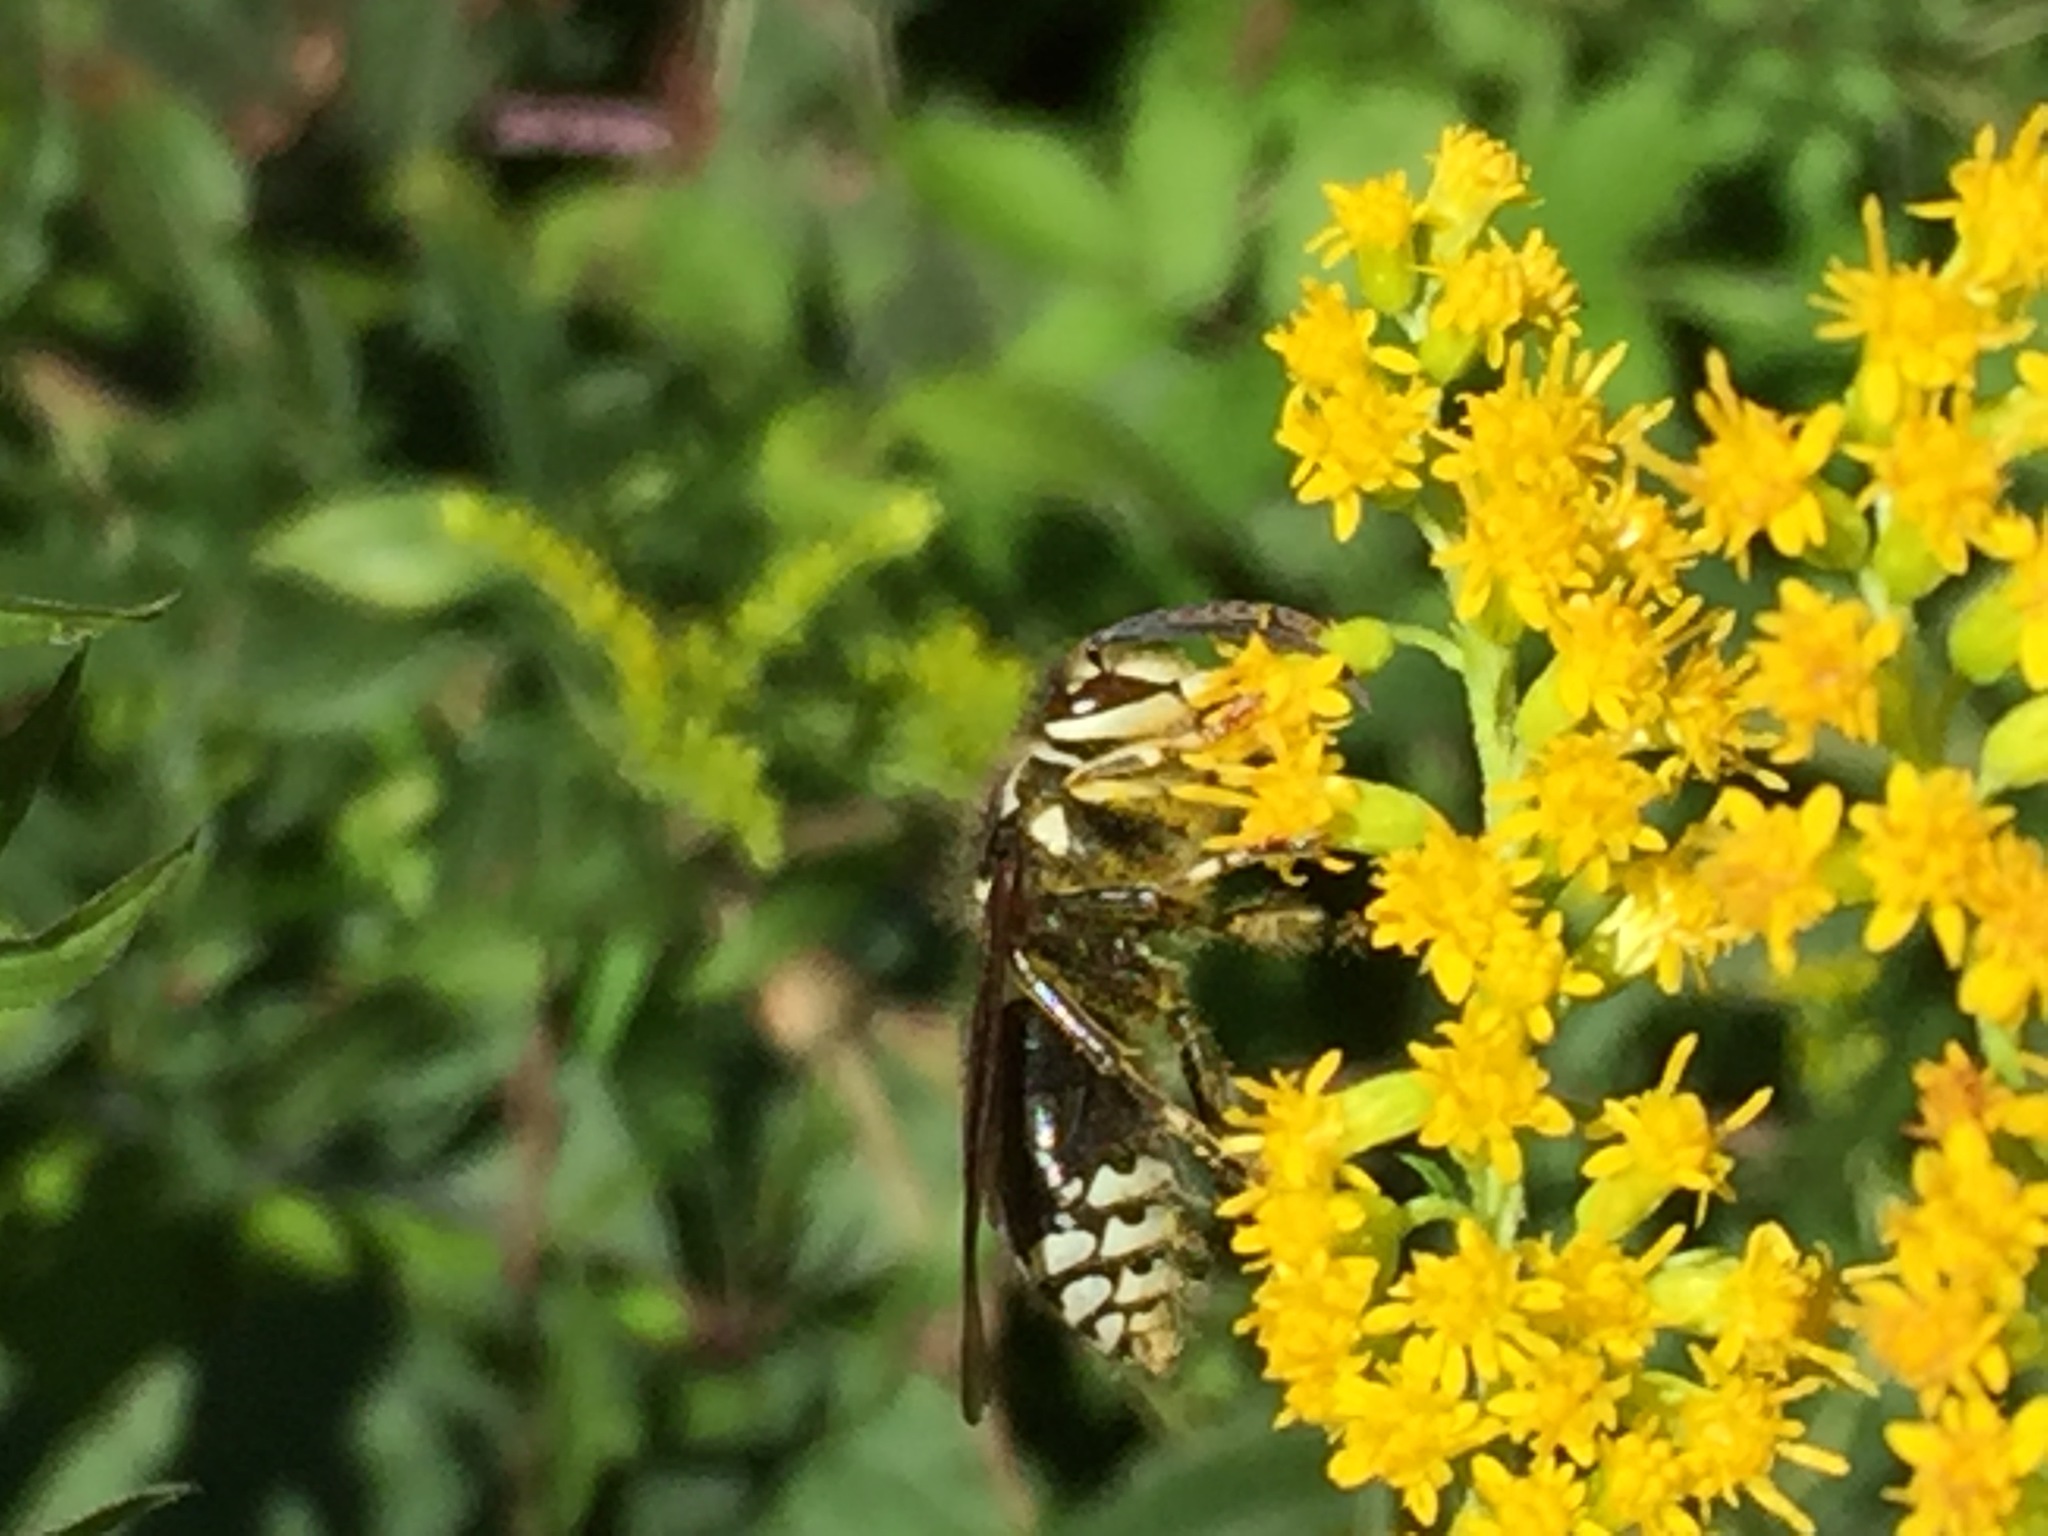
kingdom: Animalia
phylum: Arthropoda
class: Insecta
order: Hymenoptera
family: Vespidae
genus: Dolichovespula
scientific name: Dolichovespula maculata
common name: Bald-faced hornet
